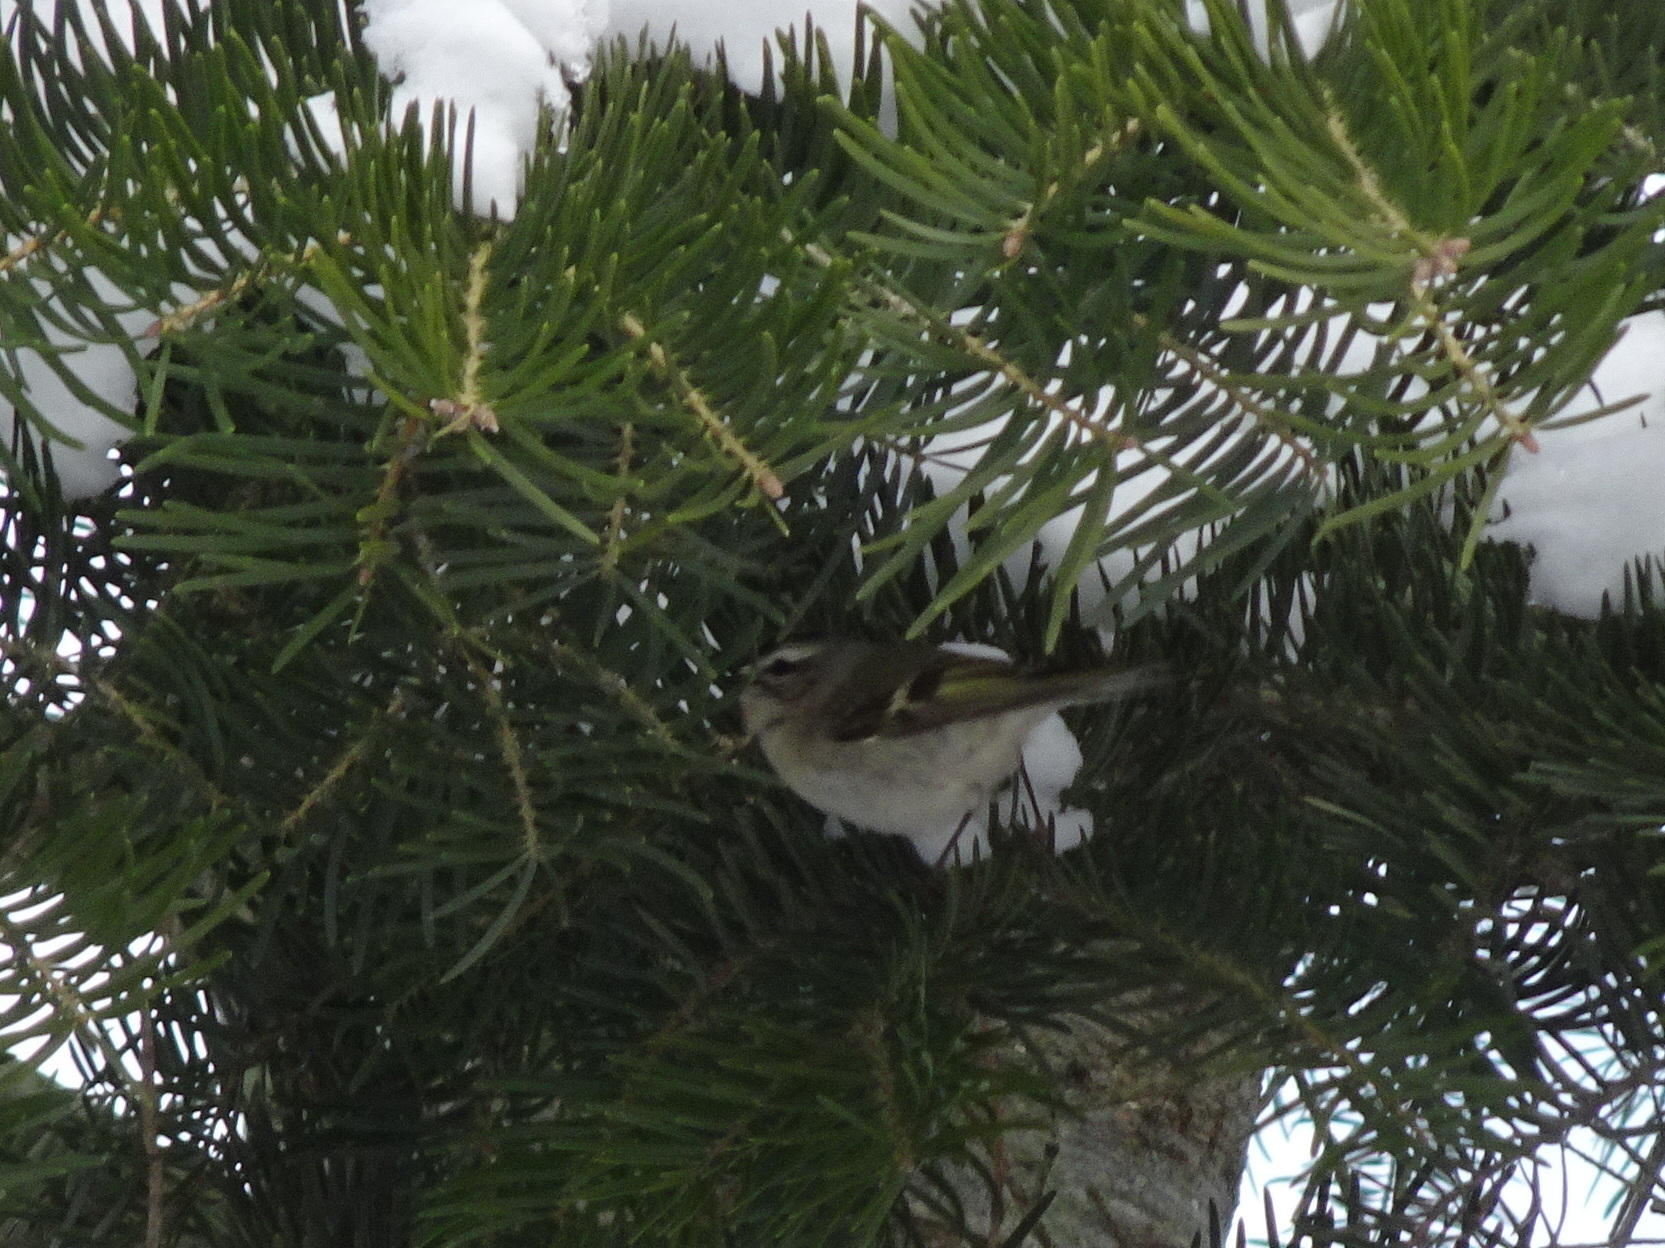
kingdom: Animalia
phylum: Chordata
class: Aves
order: Passeriformes
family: Regulidae
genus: Regulus
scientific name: Regulus satrapa
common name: Golden-crowned kinglet
